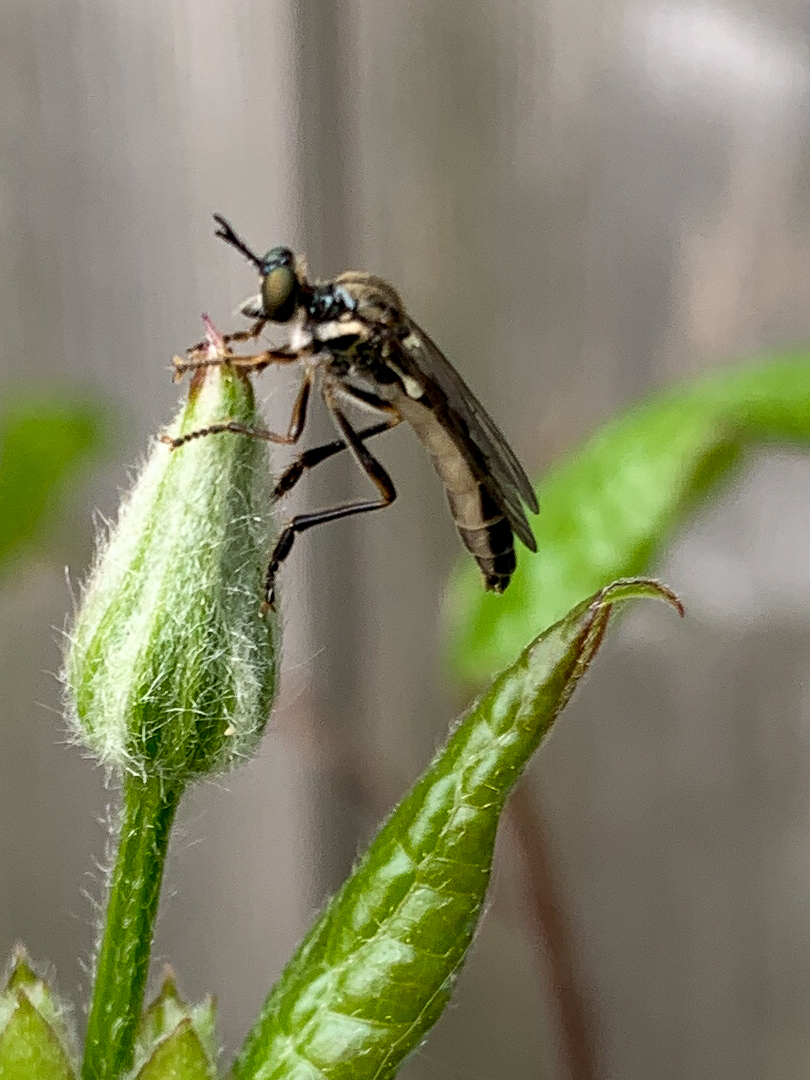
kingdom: Animalia
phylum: Arthropoda
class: Insecta
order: Diptera
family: Asilidae
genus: Dioctria
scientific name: Dioctria hyalipennis
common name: Stripe-legged robberfly
